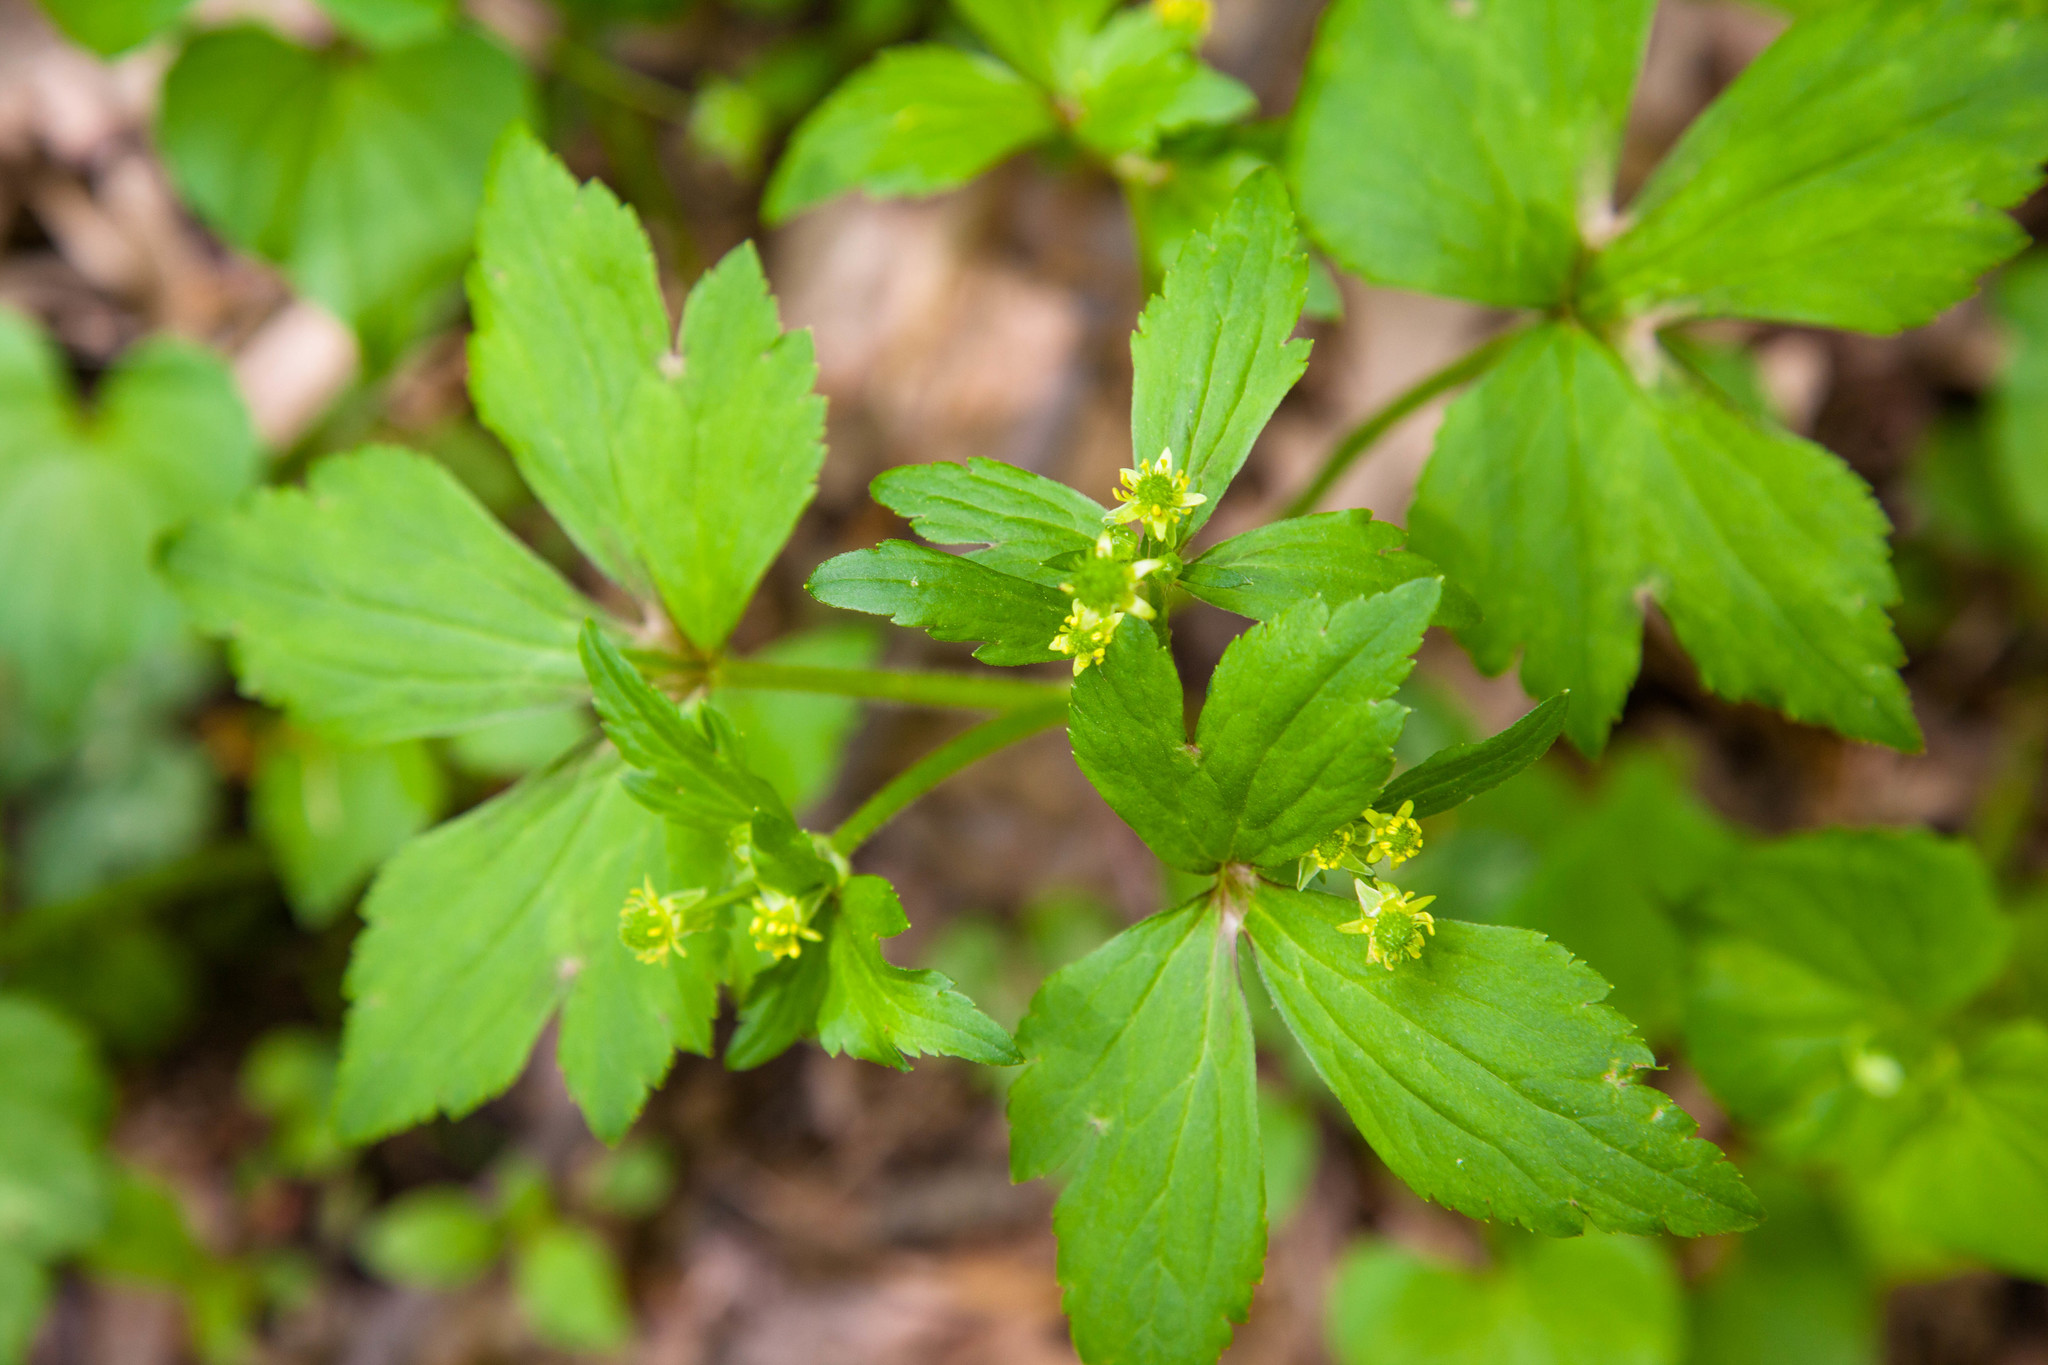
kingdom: Plantae
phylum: Tracheophyta
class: Magnoliopsida
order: Ranunculales
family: Ranunculaceae
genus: Ranunculus
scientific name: Ranunculus recurvatus
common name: Blisterwort
